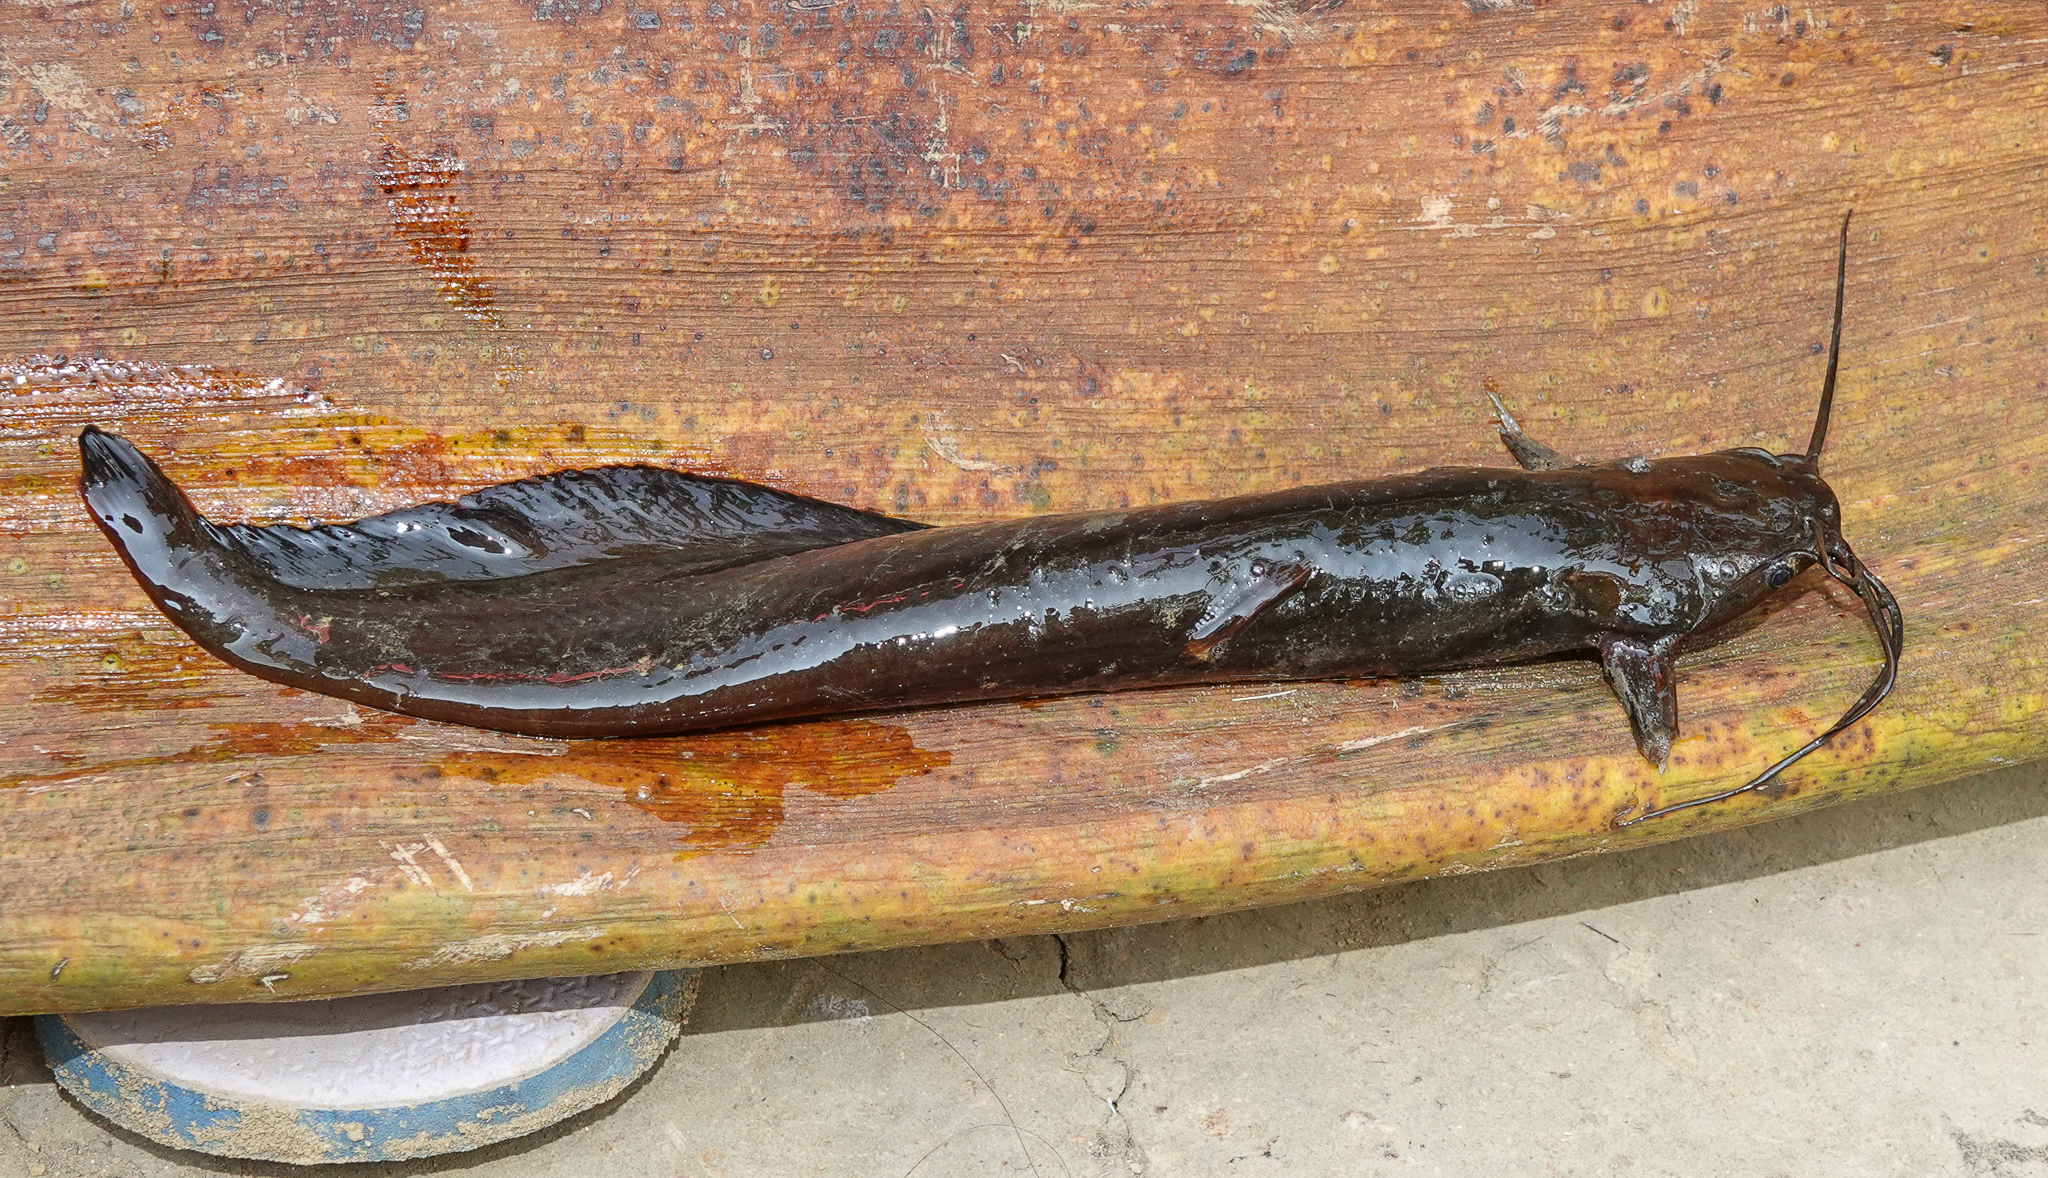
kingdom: Animalia
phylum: Chordata
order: Siluriformes
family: Heteropneustidae
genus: Heteropneustes
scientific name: Heteropneustes fossilis
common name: Stinging catfish
